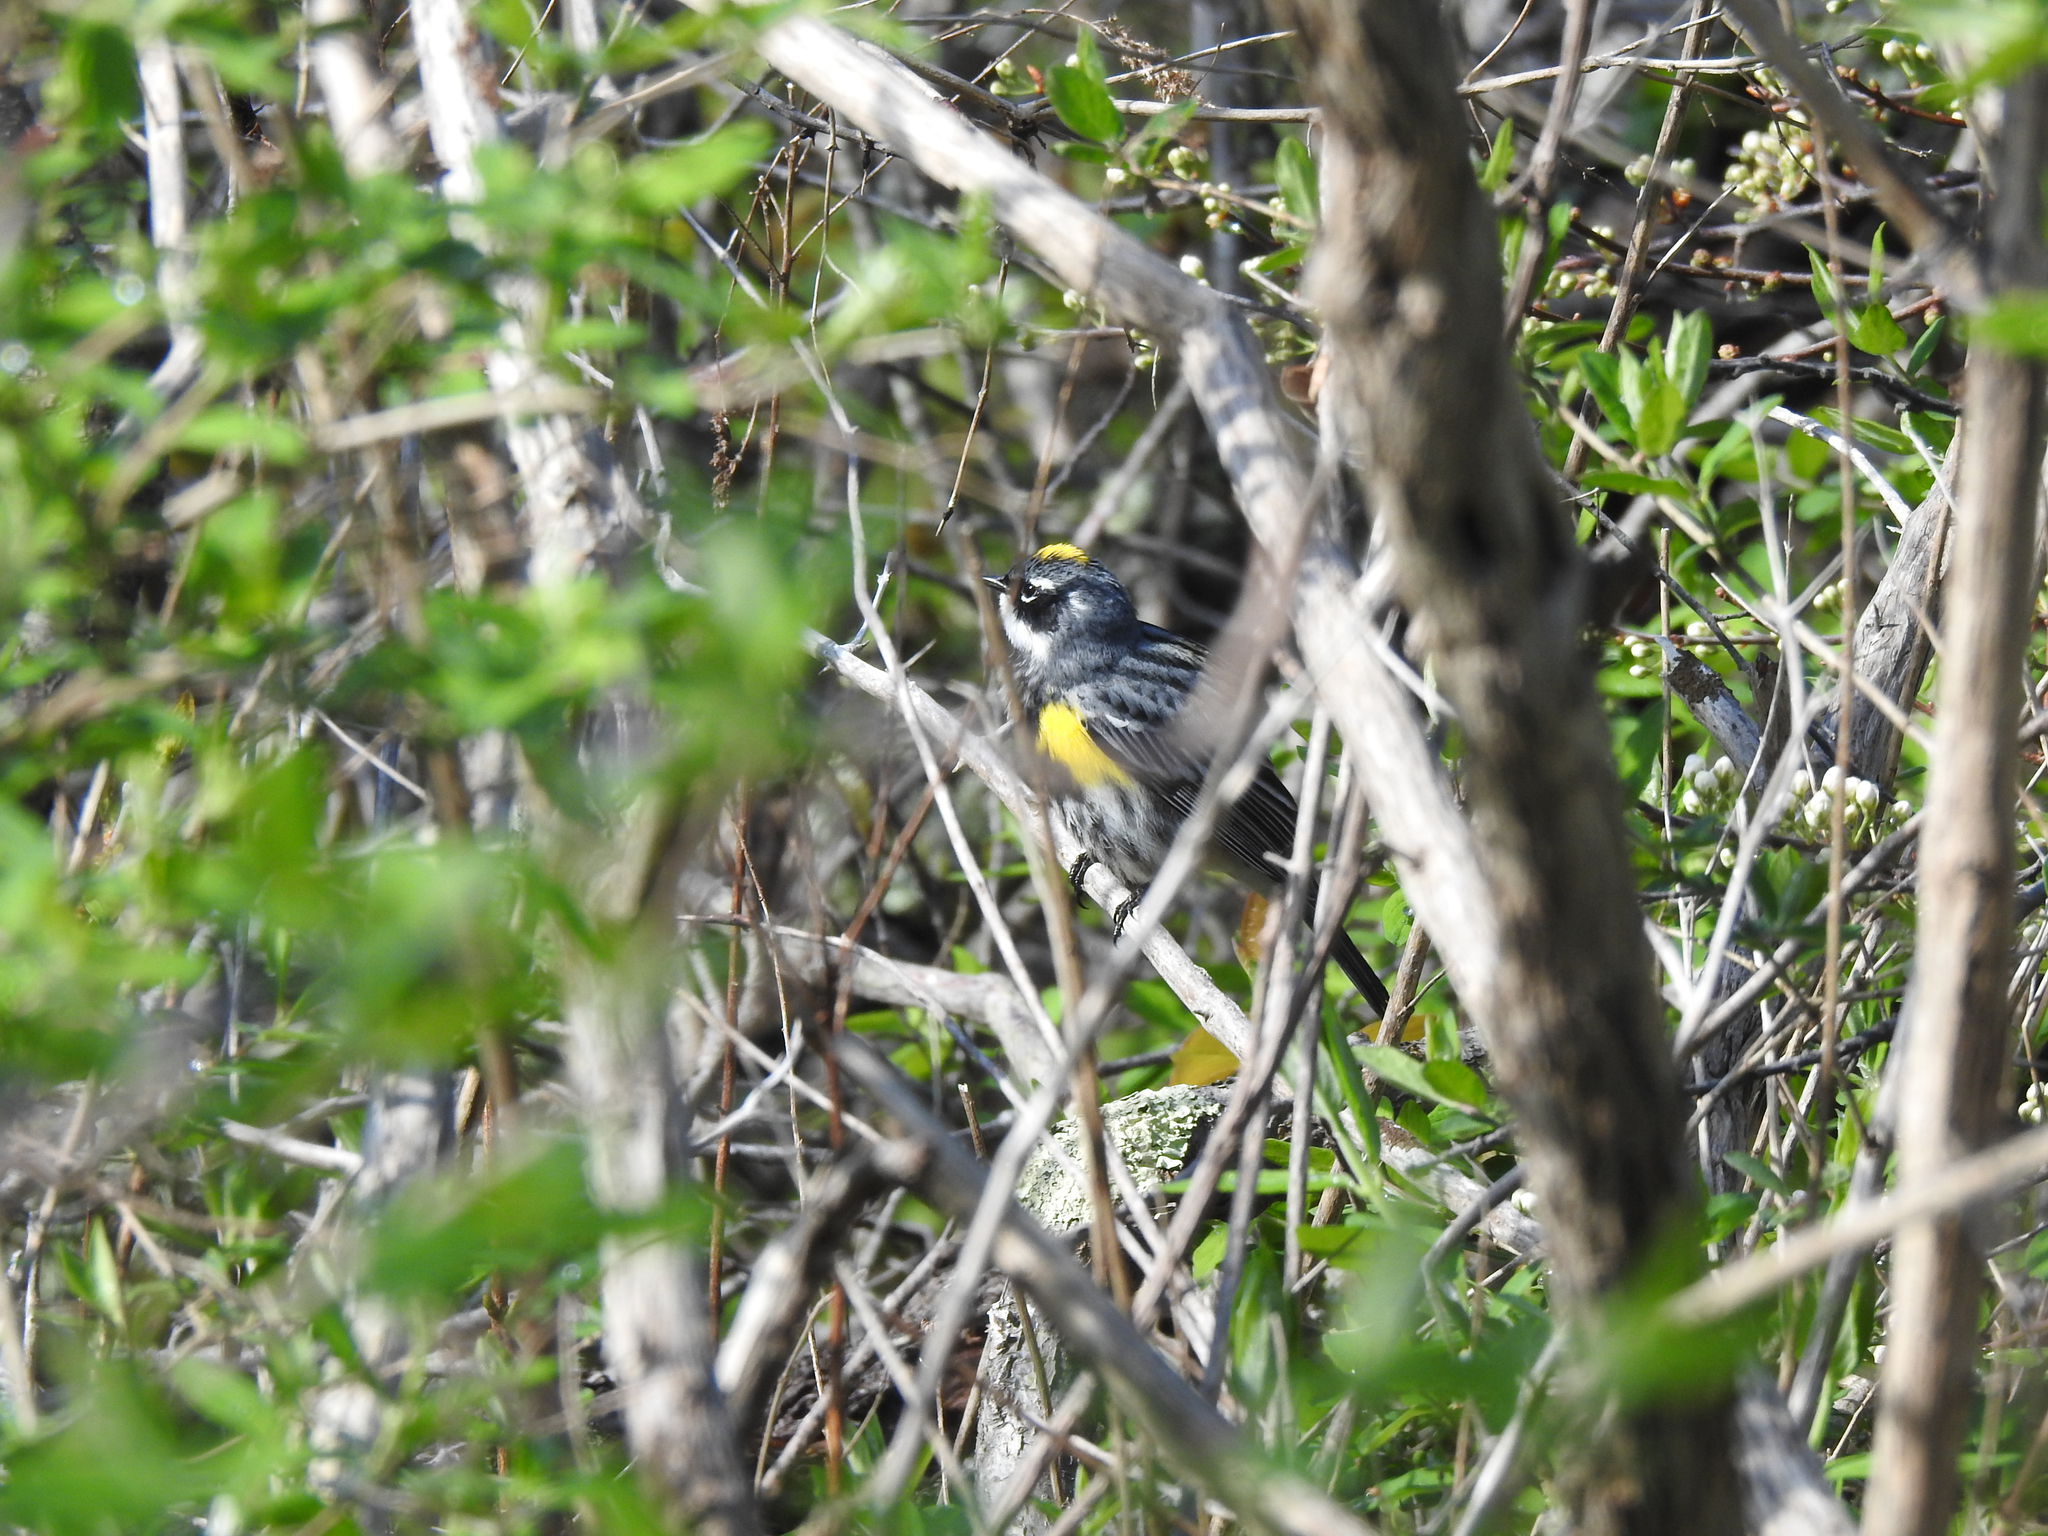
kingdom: Animalia
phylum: Chordata
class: Aves
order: Passeriformes
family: Parulidae
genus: Setophaga
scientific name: Setophaga coronata
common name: Myrtle warbler
